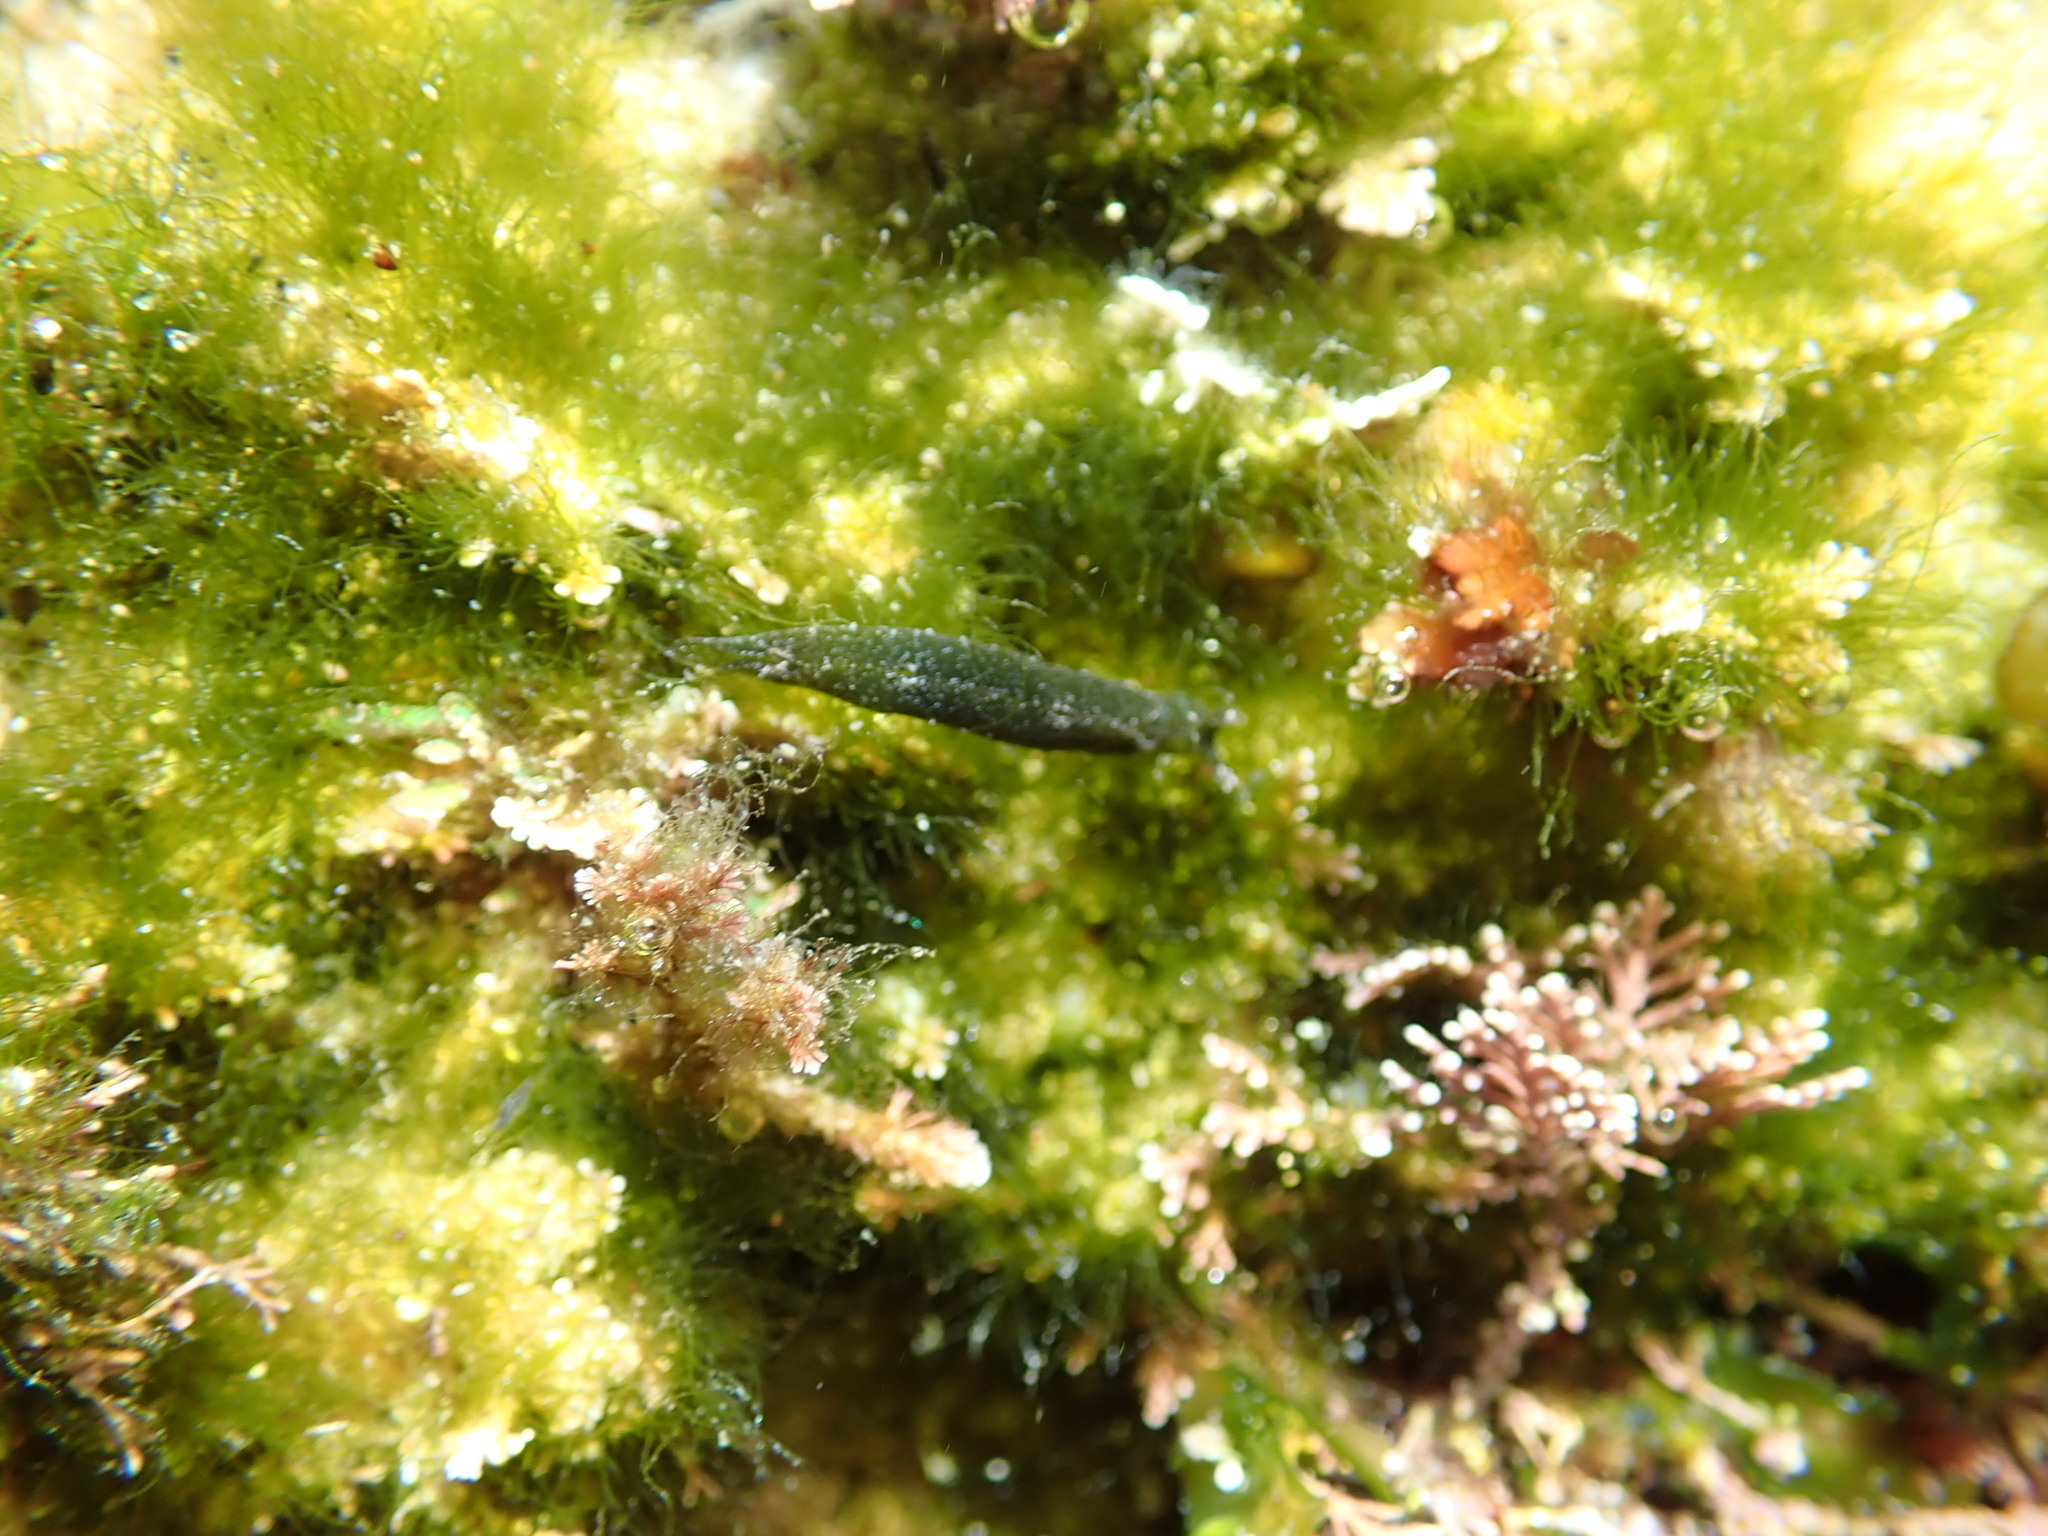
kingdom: Animalia
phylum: Mollusca
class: Gastropoda
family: Plakobranchidae
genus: Elysia
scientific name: Elysia maoria
